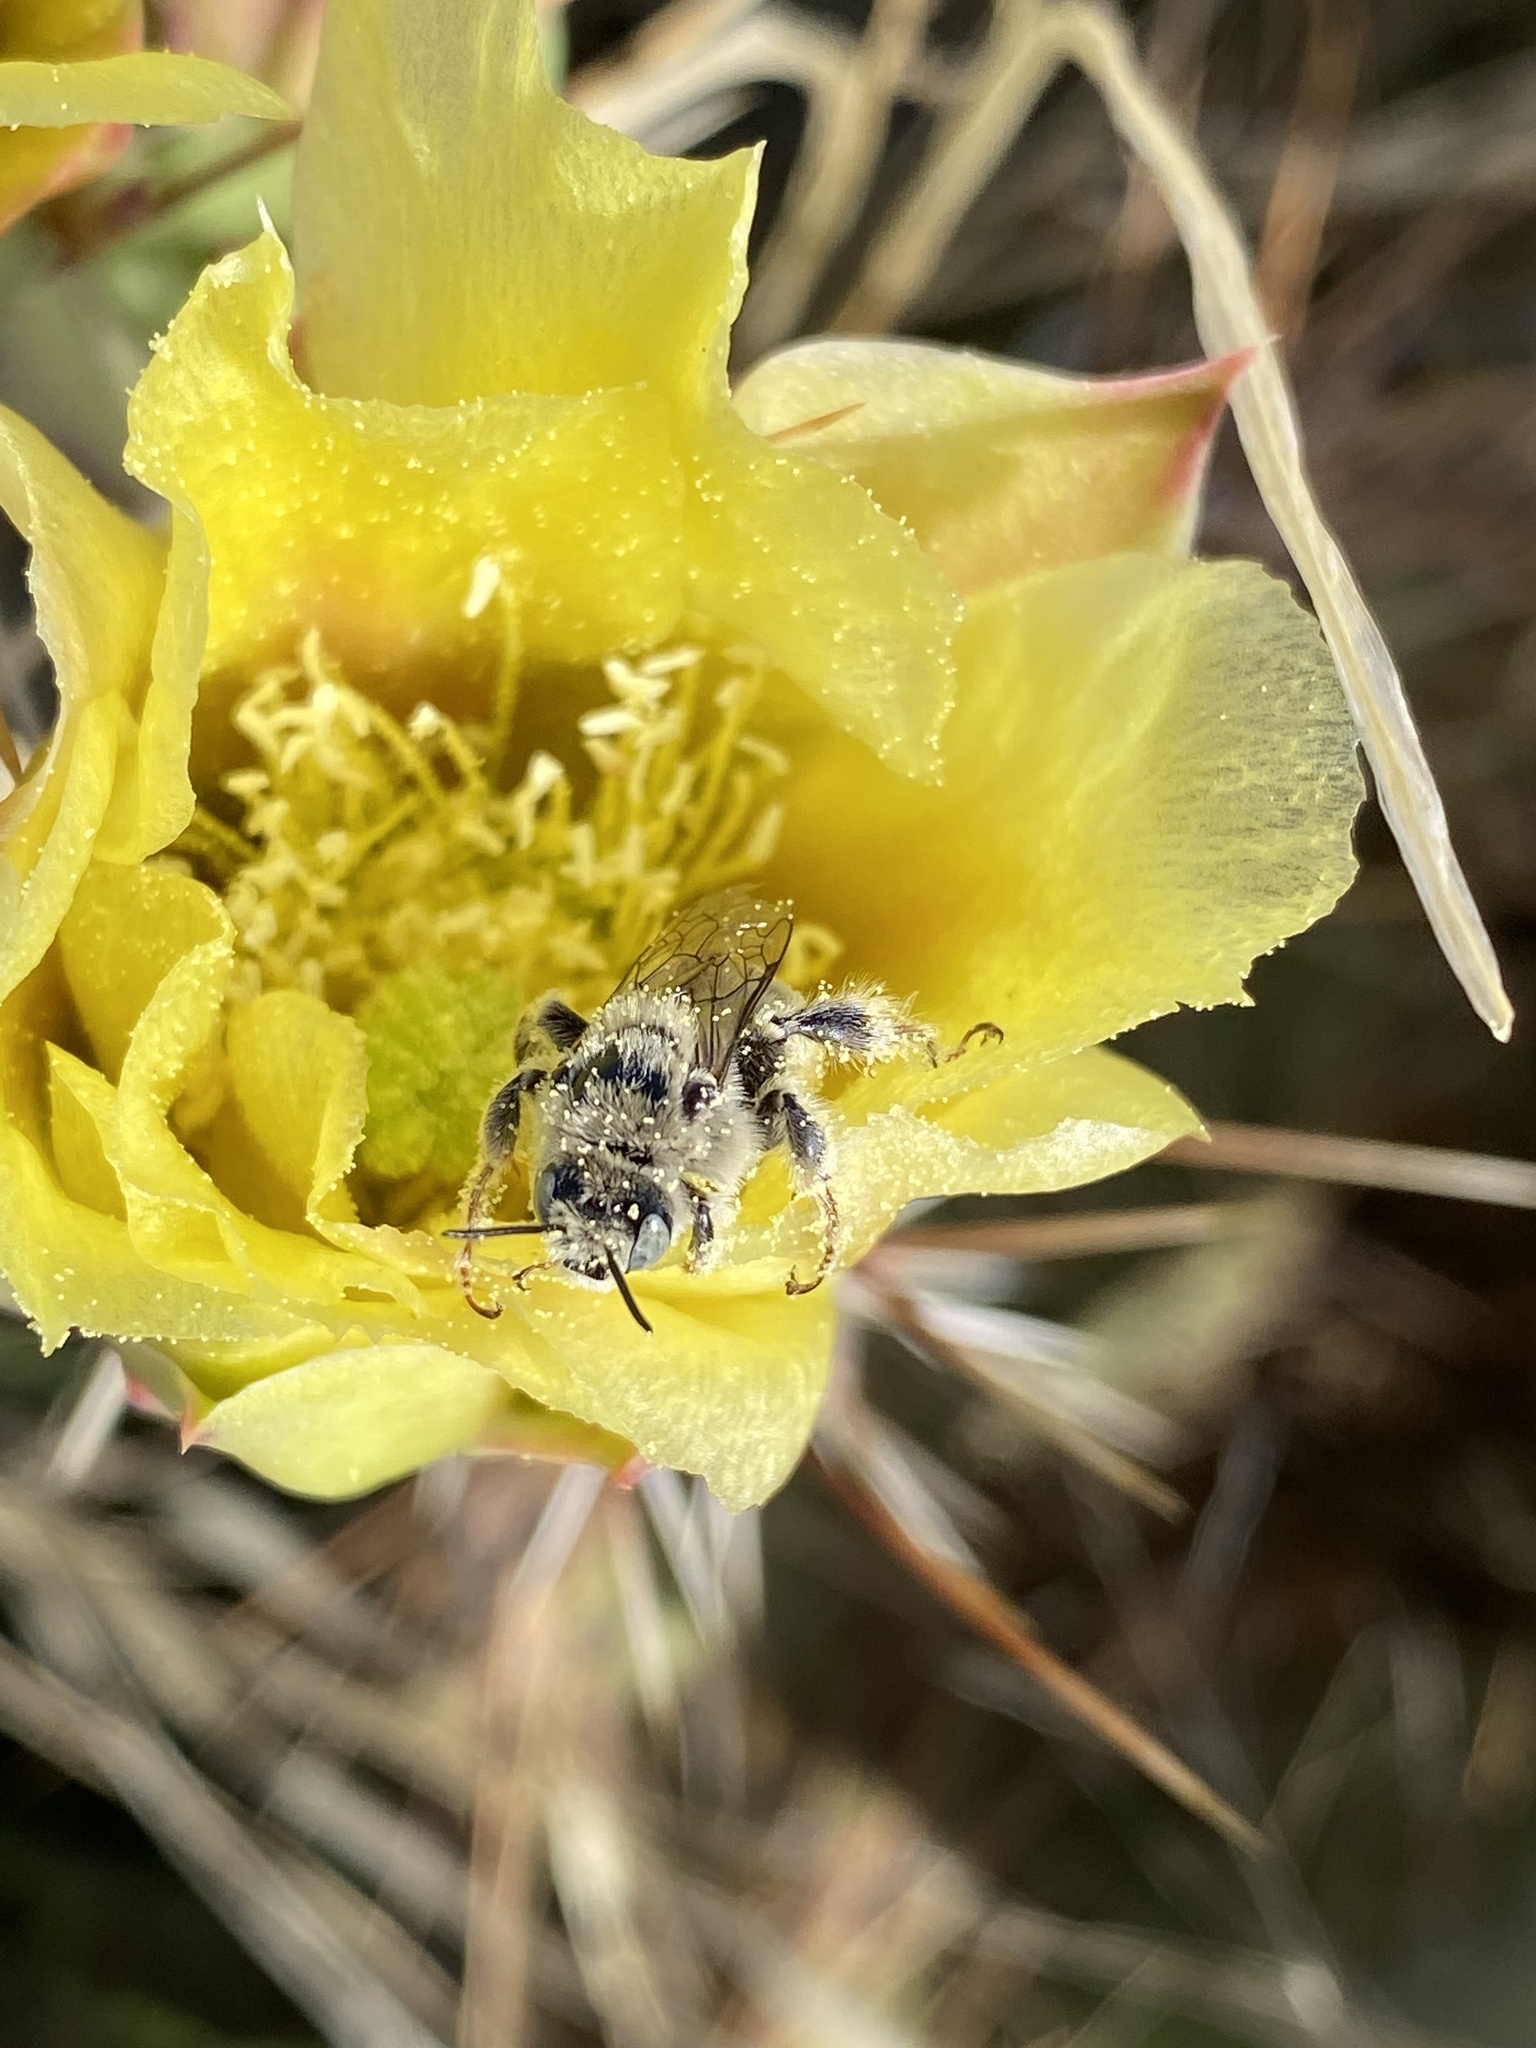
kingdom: Animalia
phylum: Arthropoda
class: Insecta
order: Hymenoptera
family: Apidae
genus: Diadasia
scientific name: Diadasia
